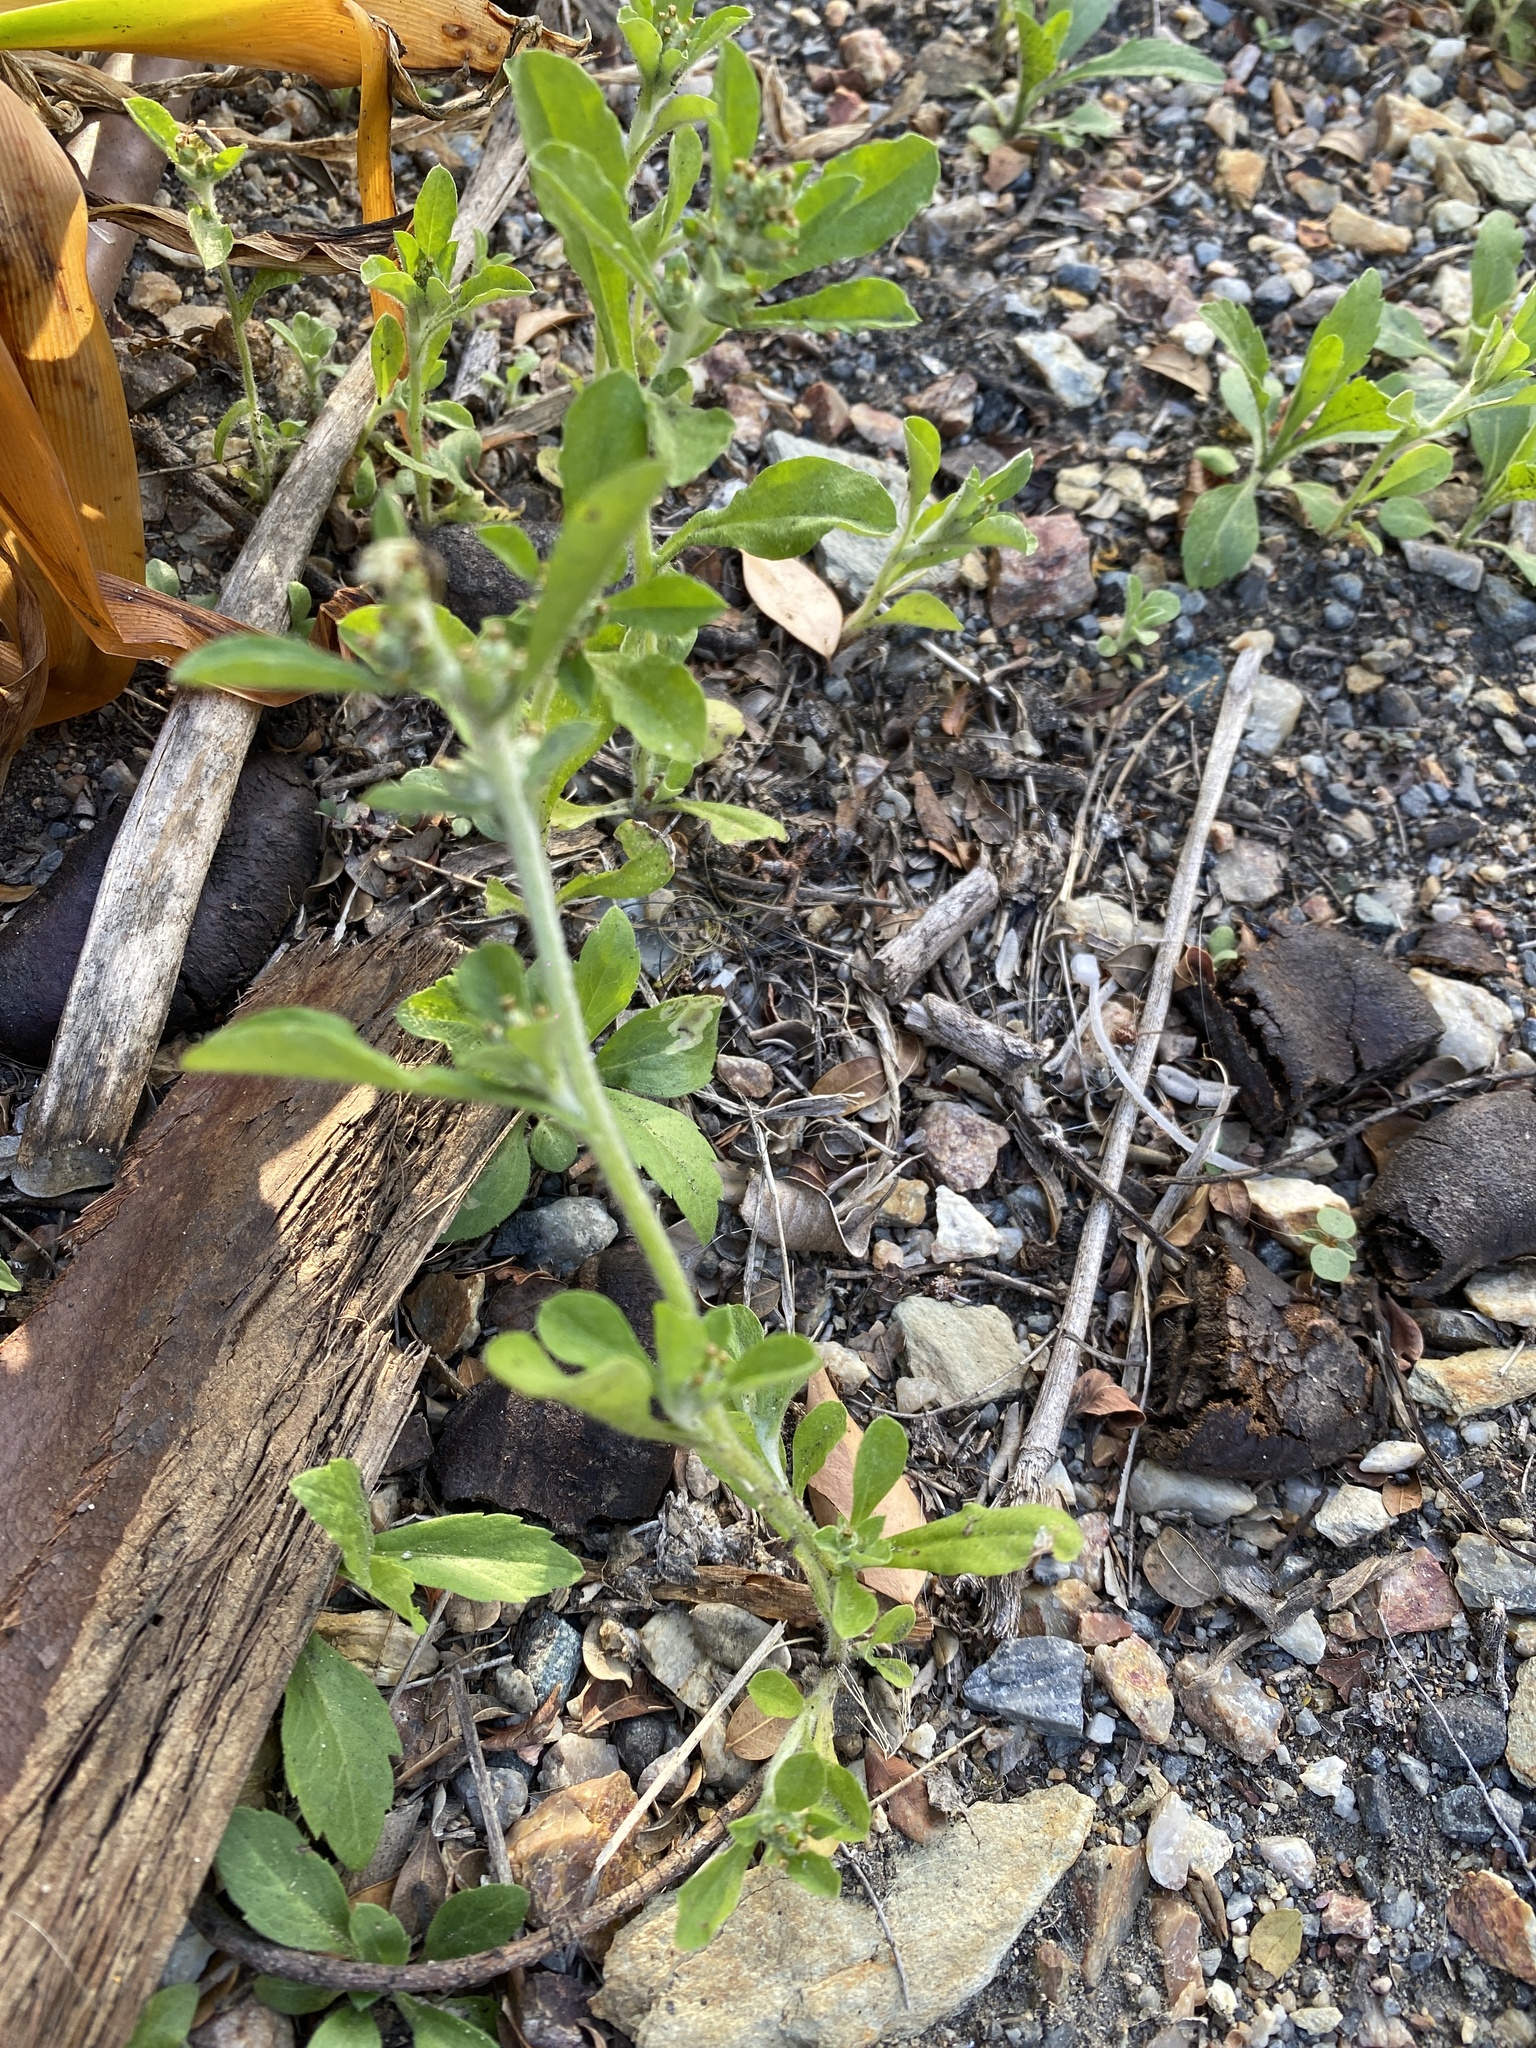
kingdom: Plantae
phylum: Tracheophyta
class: Magnoliopsida
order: Asterales
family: Asteraceae
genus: Gamochaeta
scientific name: Gamochaeta pensylvanica
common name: Pennsylvania everlasting
